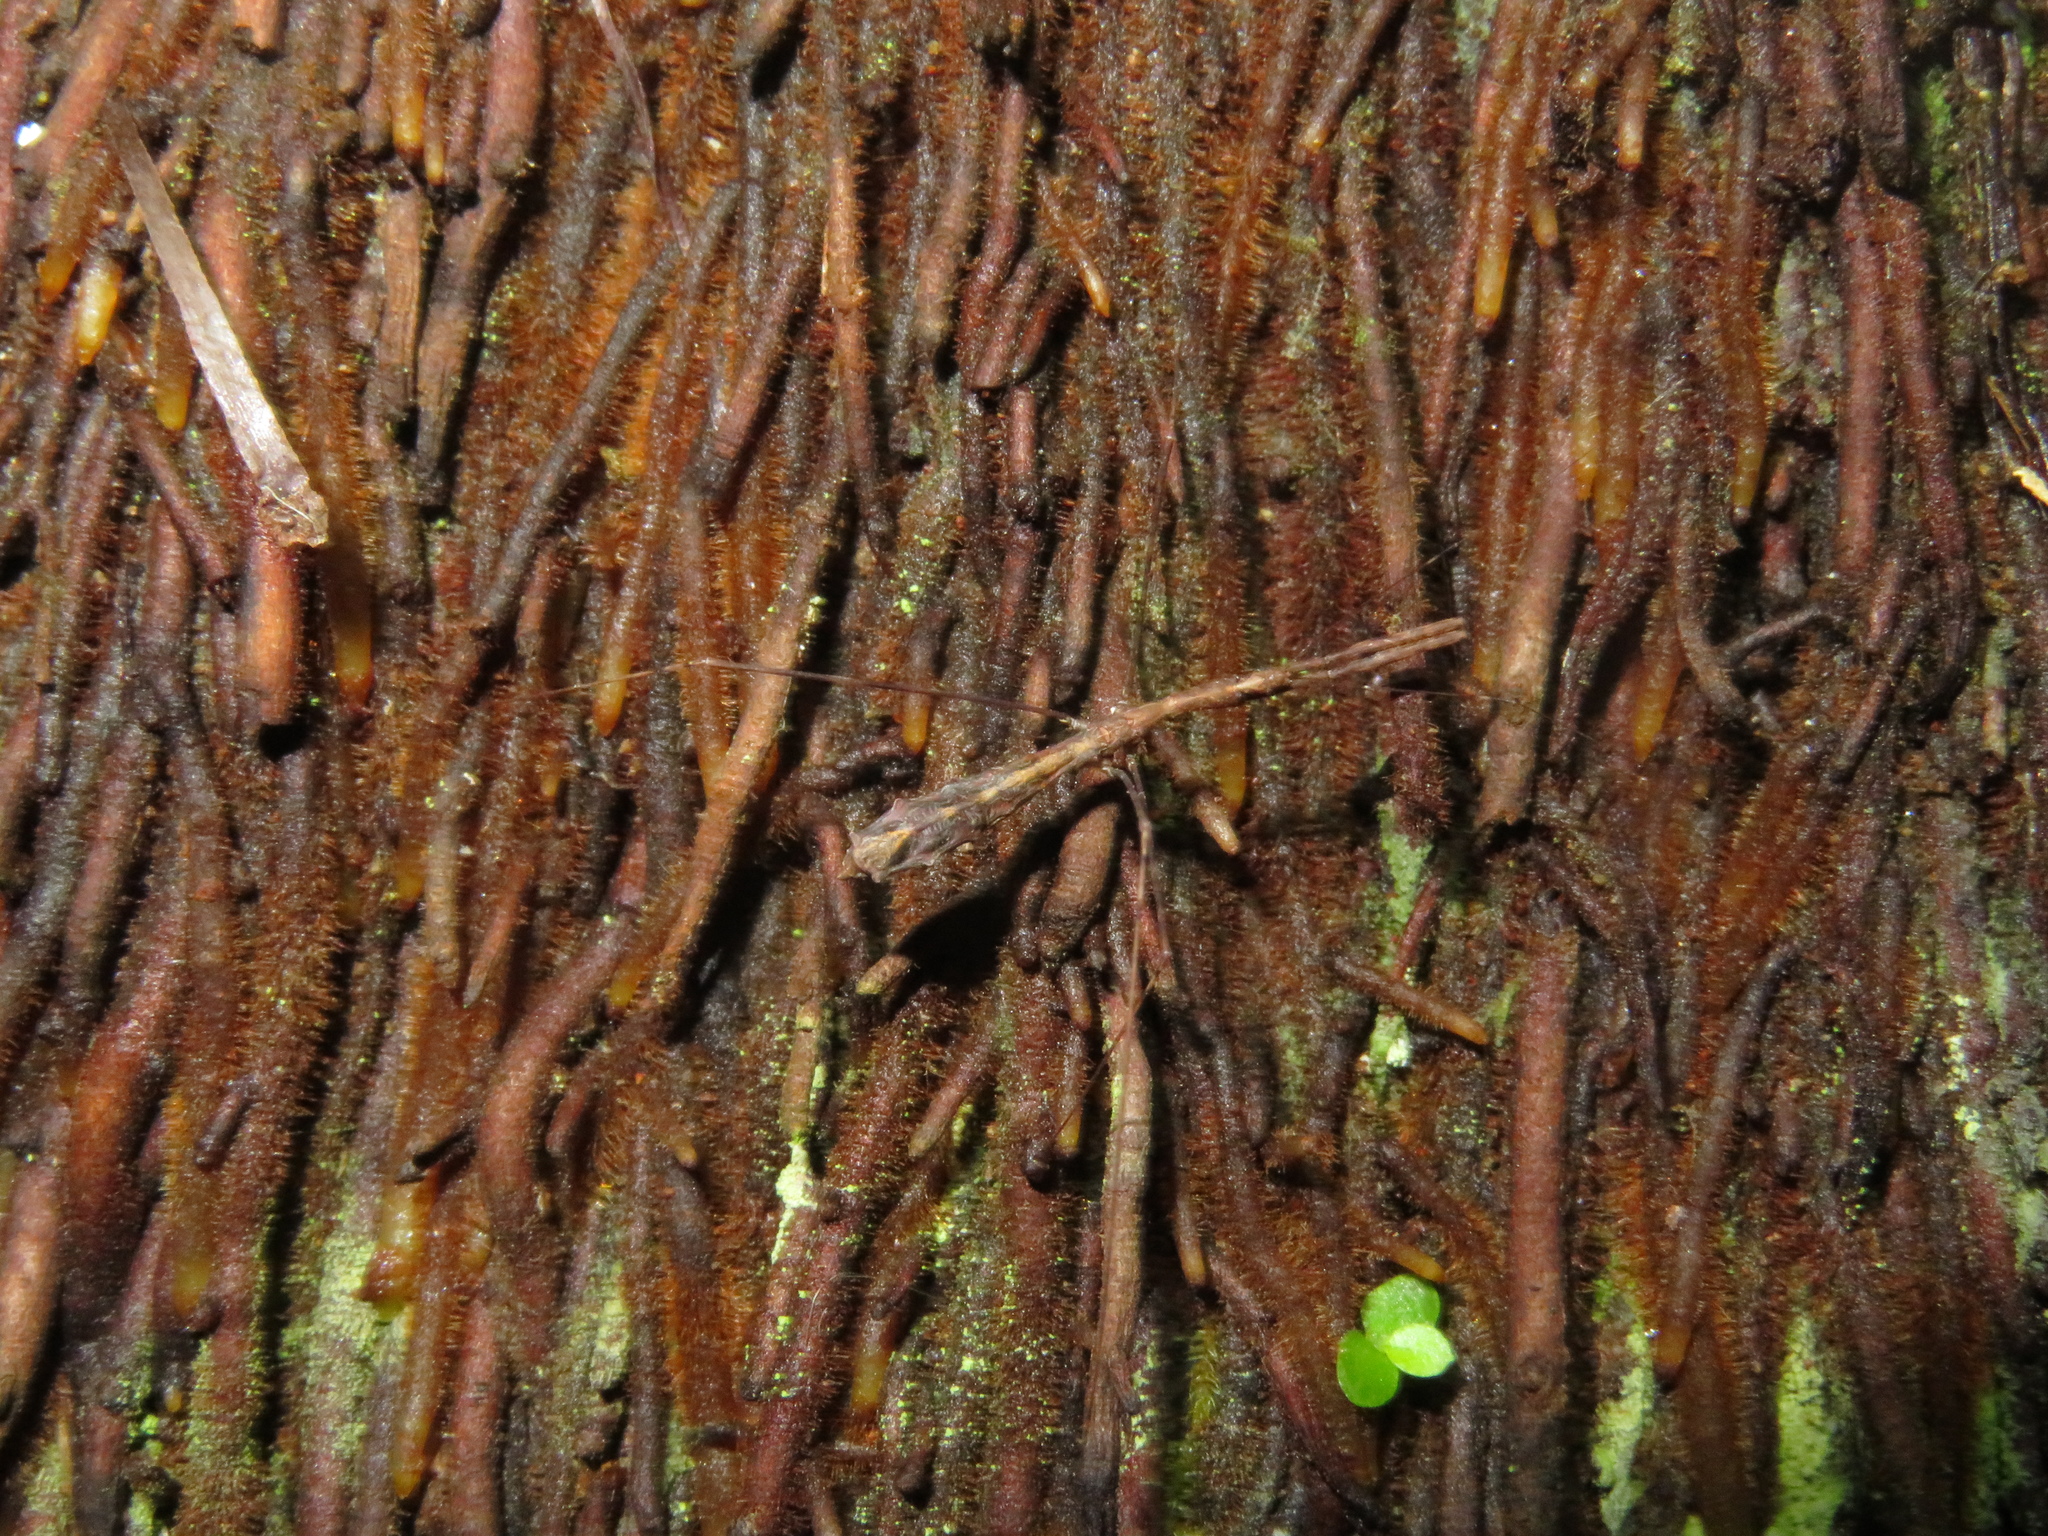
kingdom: Animalia
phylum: Arthropoda
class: Insecta
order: Hemiptera
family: Reduviidae
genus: Ploiaria
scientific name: Ploiaria antipodum
